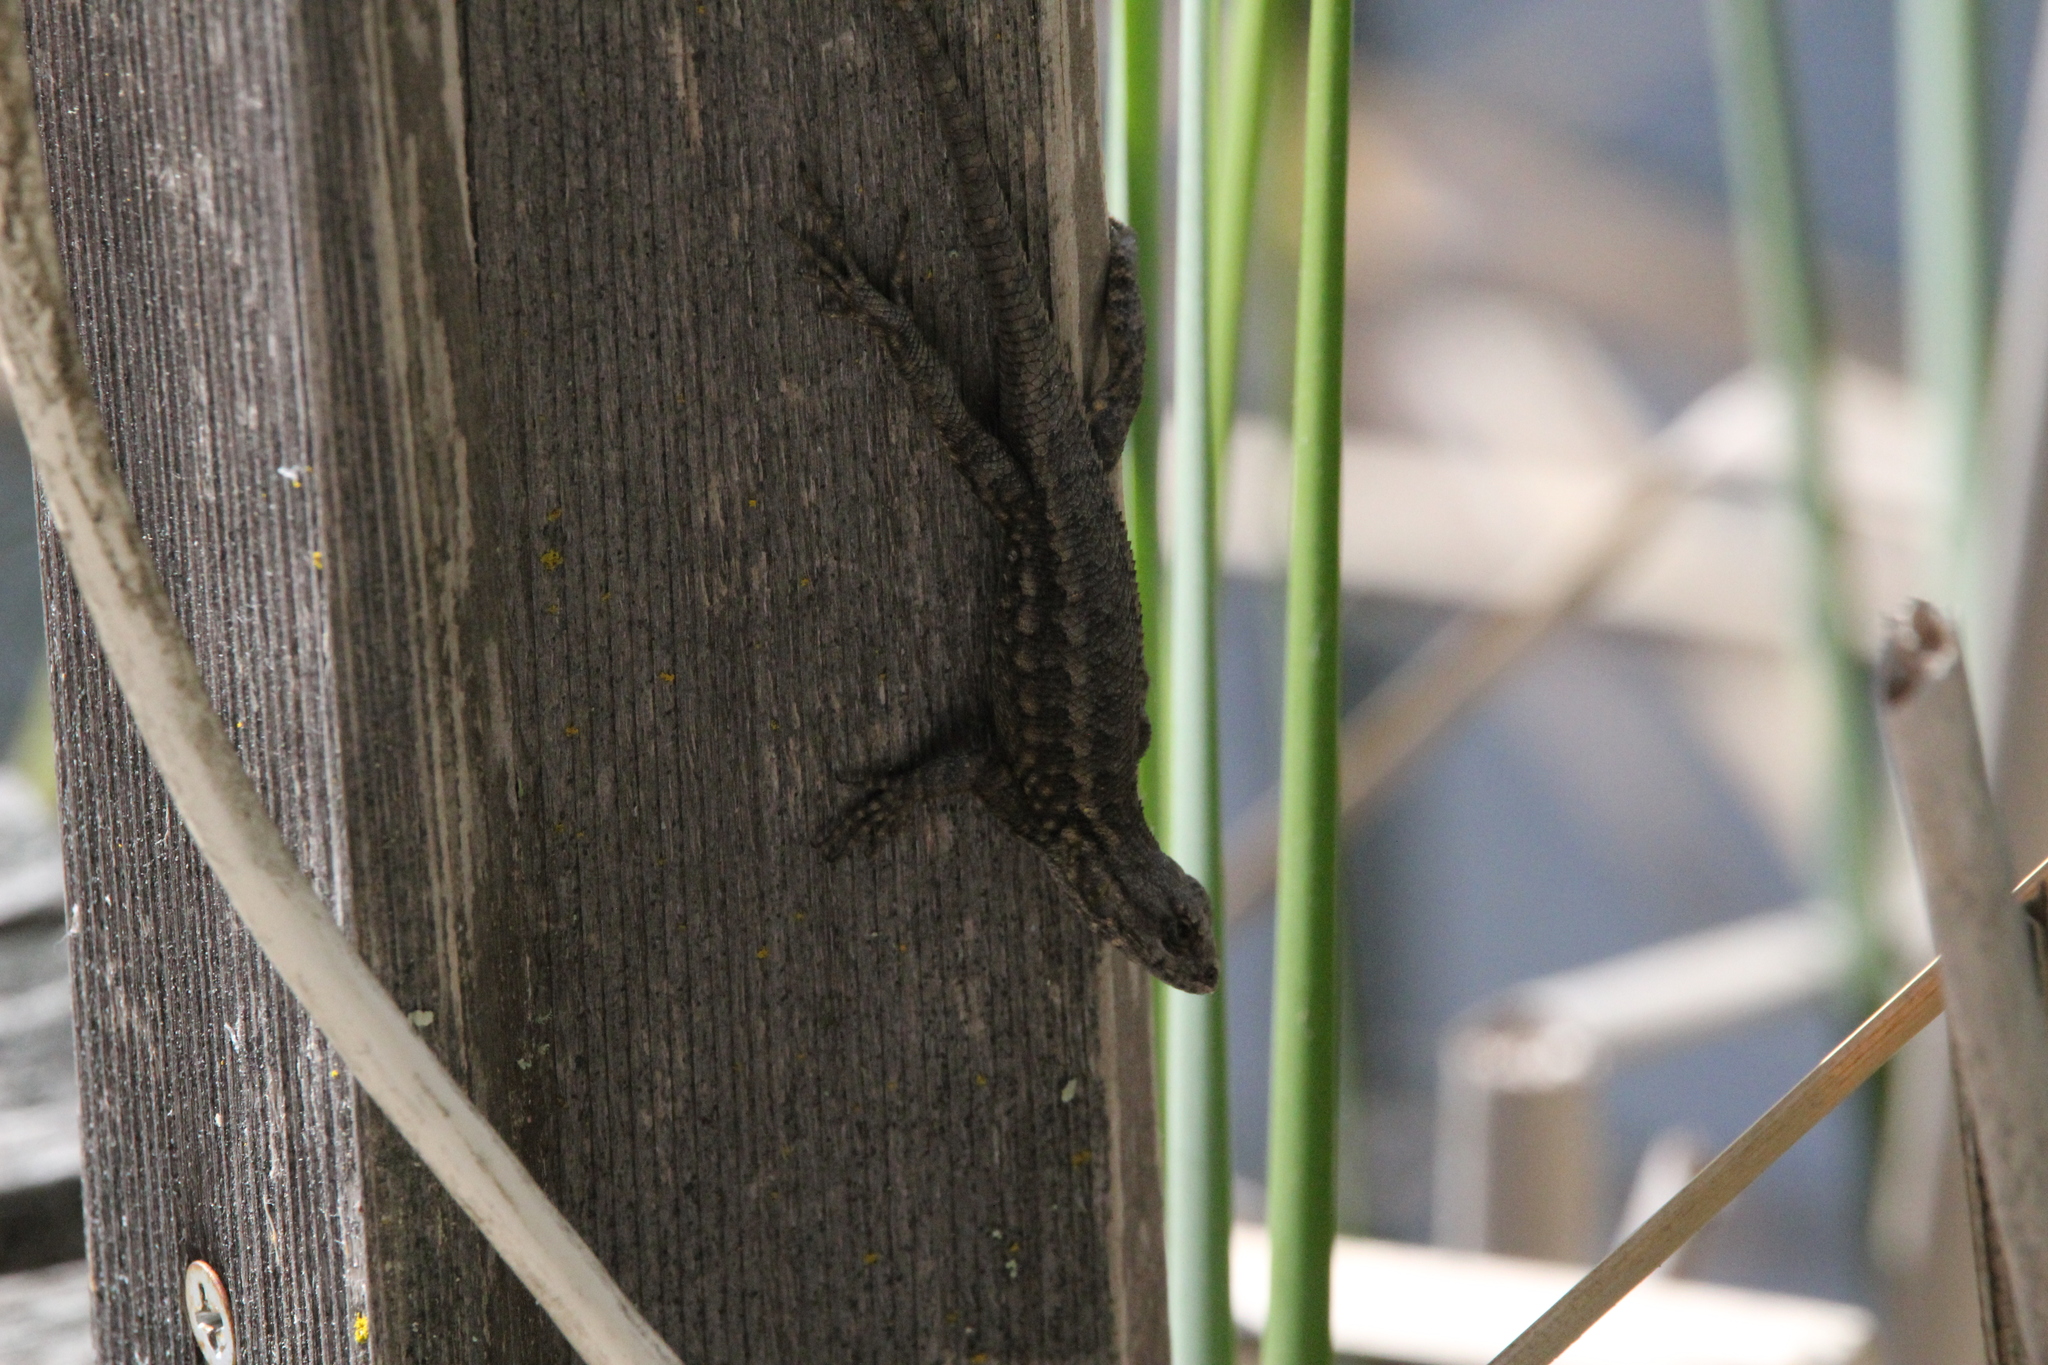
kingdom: Animalia
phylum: Chordata
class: Squamata
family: Phrynosomatidae
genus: Sceloporus
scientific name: Sceloporus occidentalis
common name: Western fence lizard
